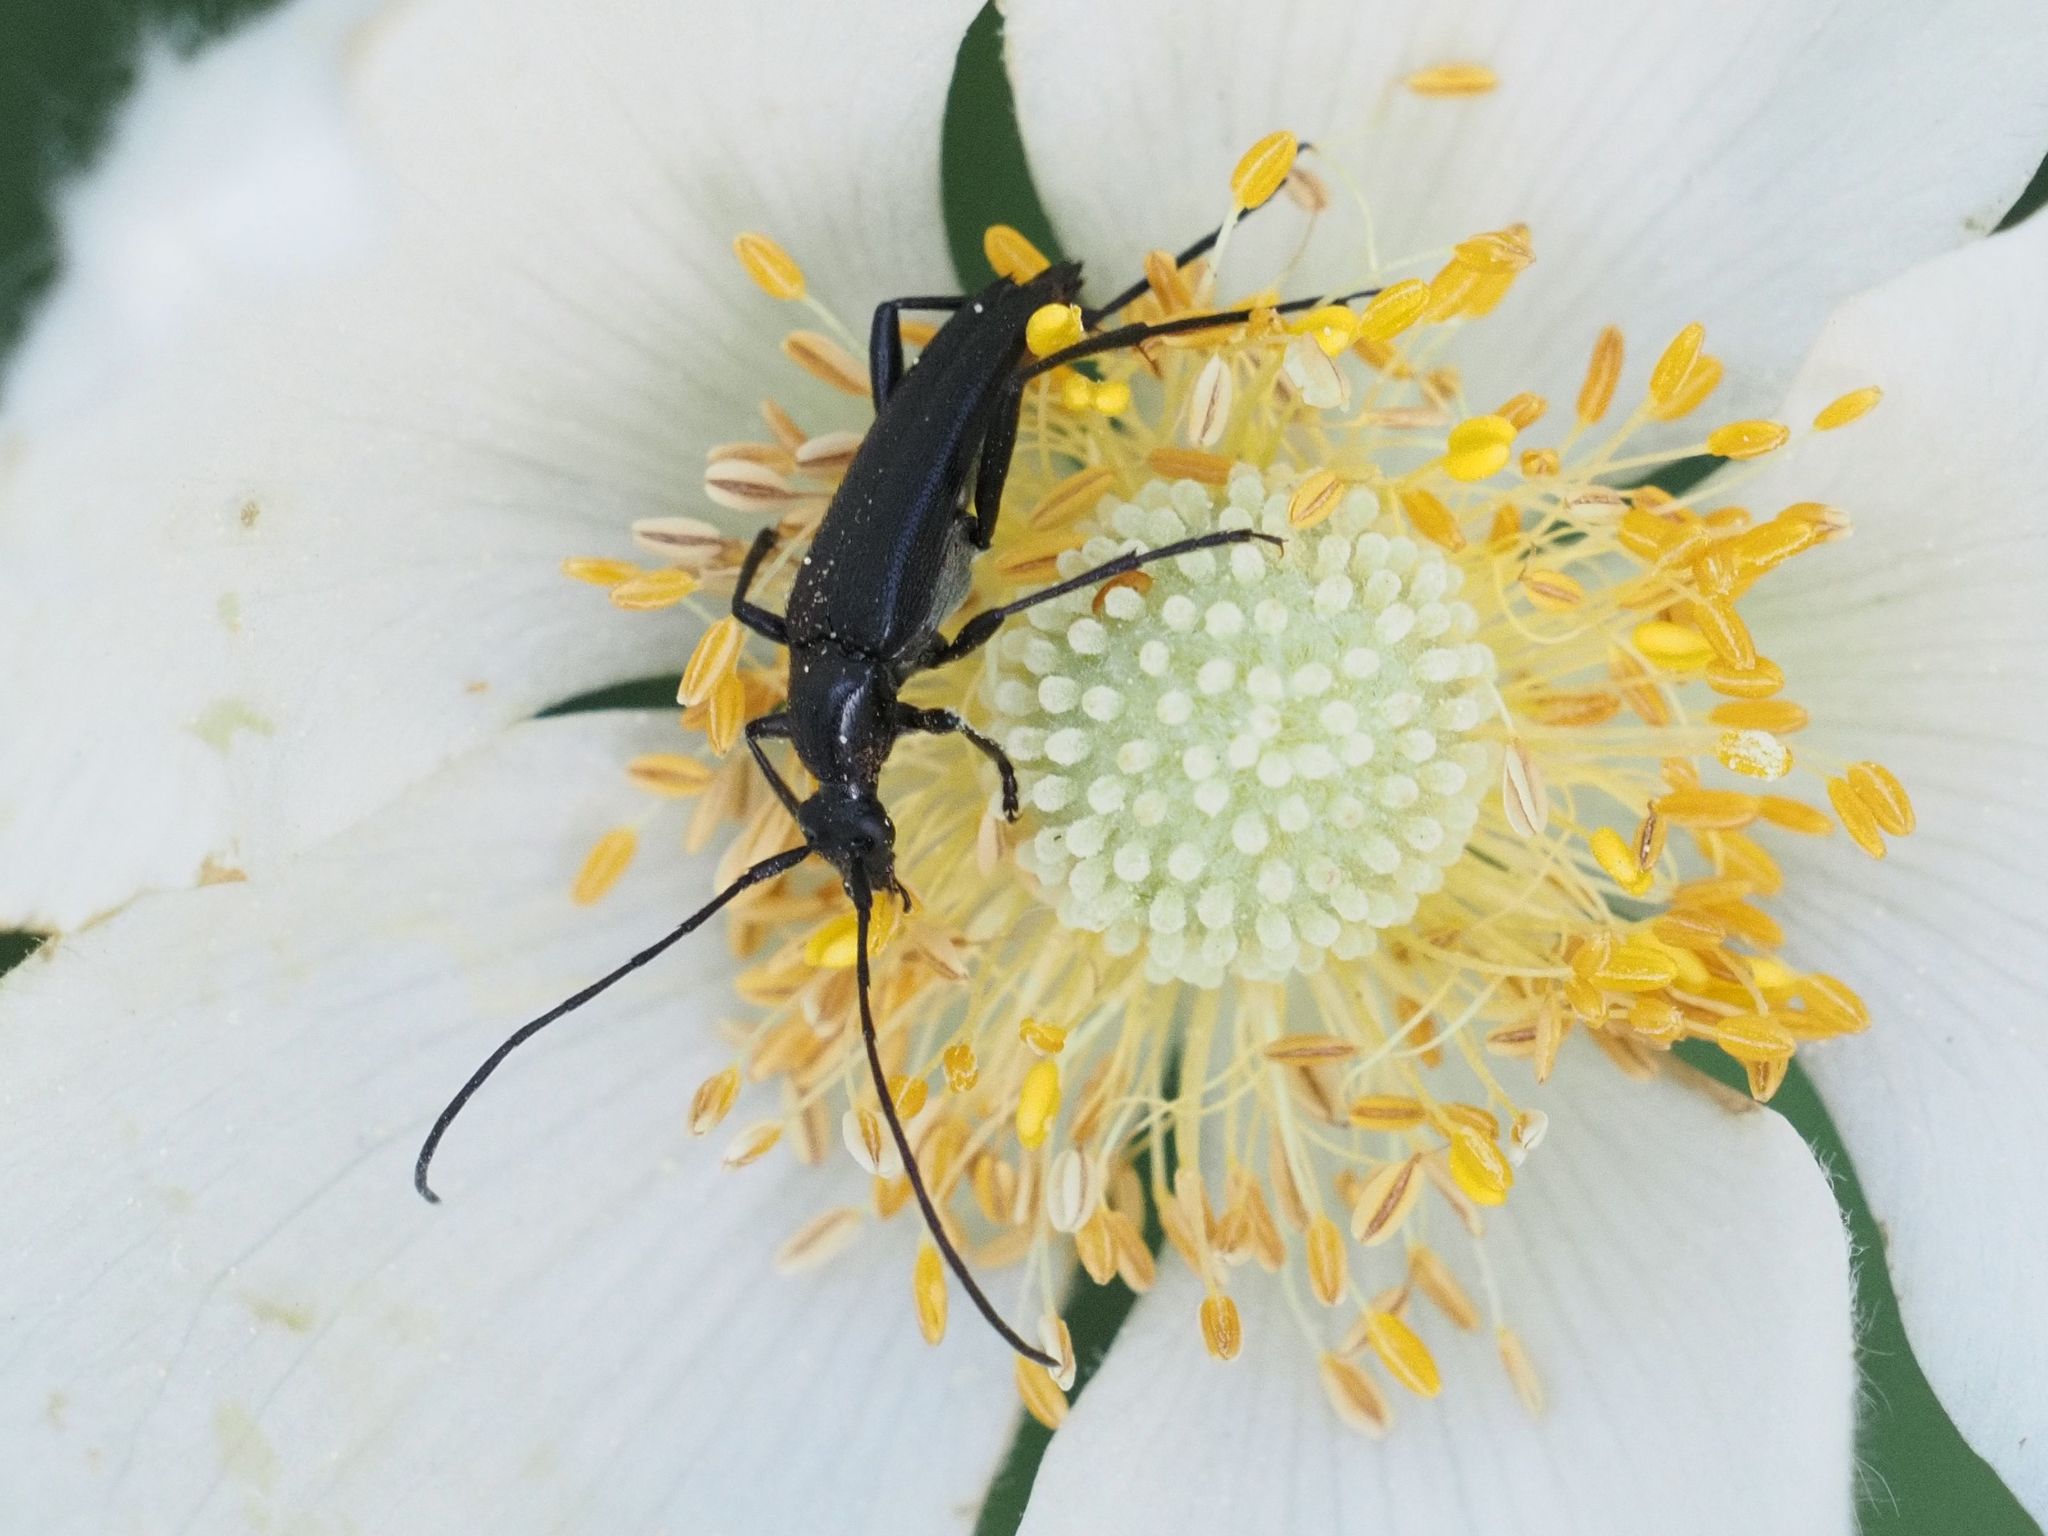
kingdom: Animalia
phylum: Arthropoda
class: Insecta
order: Coleoptera
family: Cerambycidae
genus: Stenurella
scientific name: Stenurella melanura
